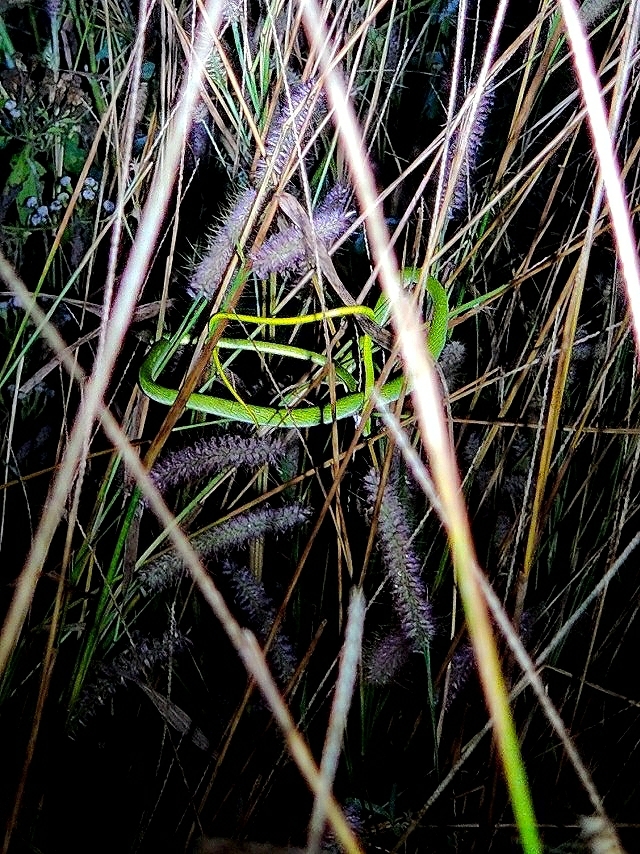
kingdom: Animalia
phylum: Chordata
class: Squamata
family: Colubridae
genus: Ahaetulla
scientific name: Ahaetulla oxyrhyncha
